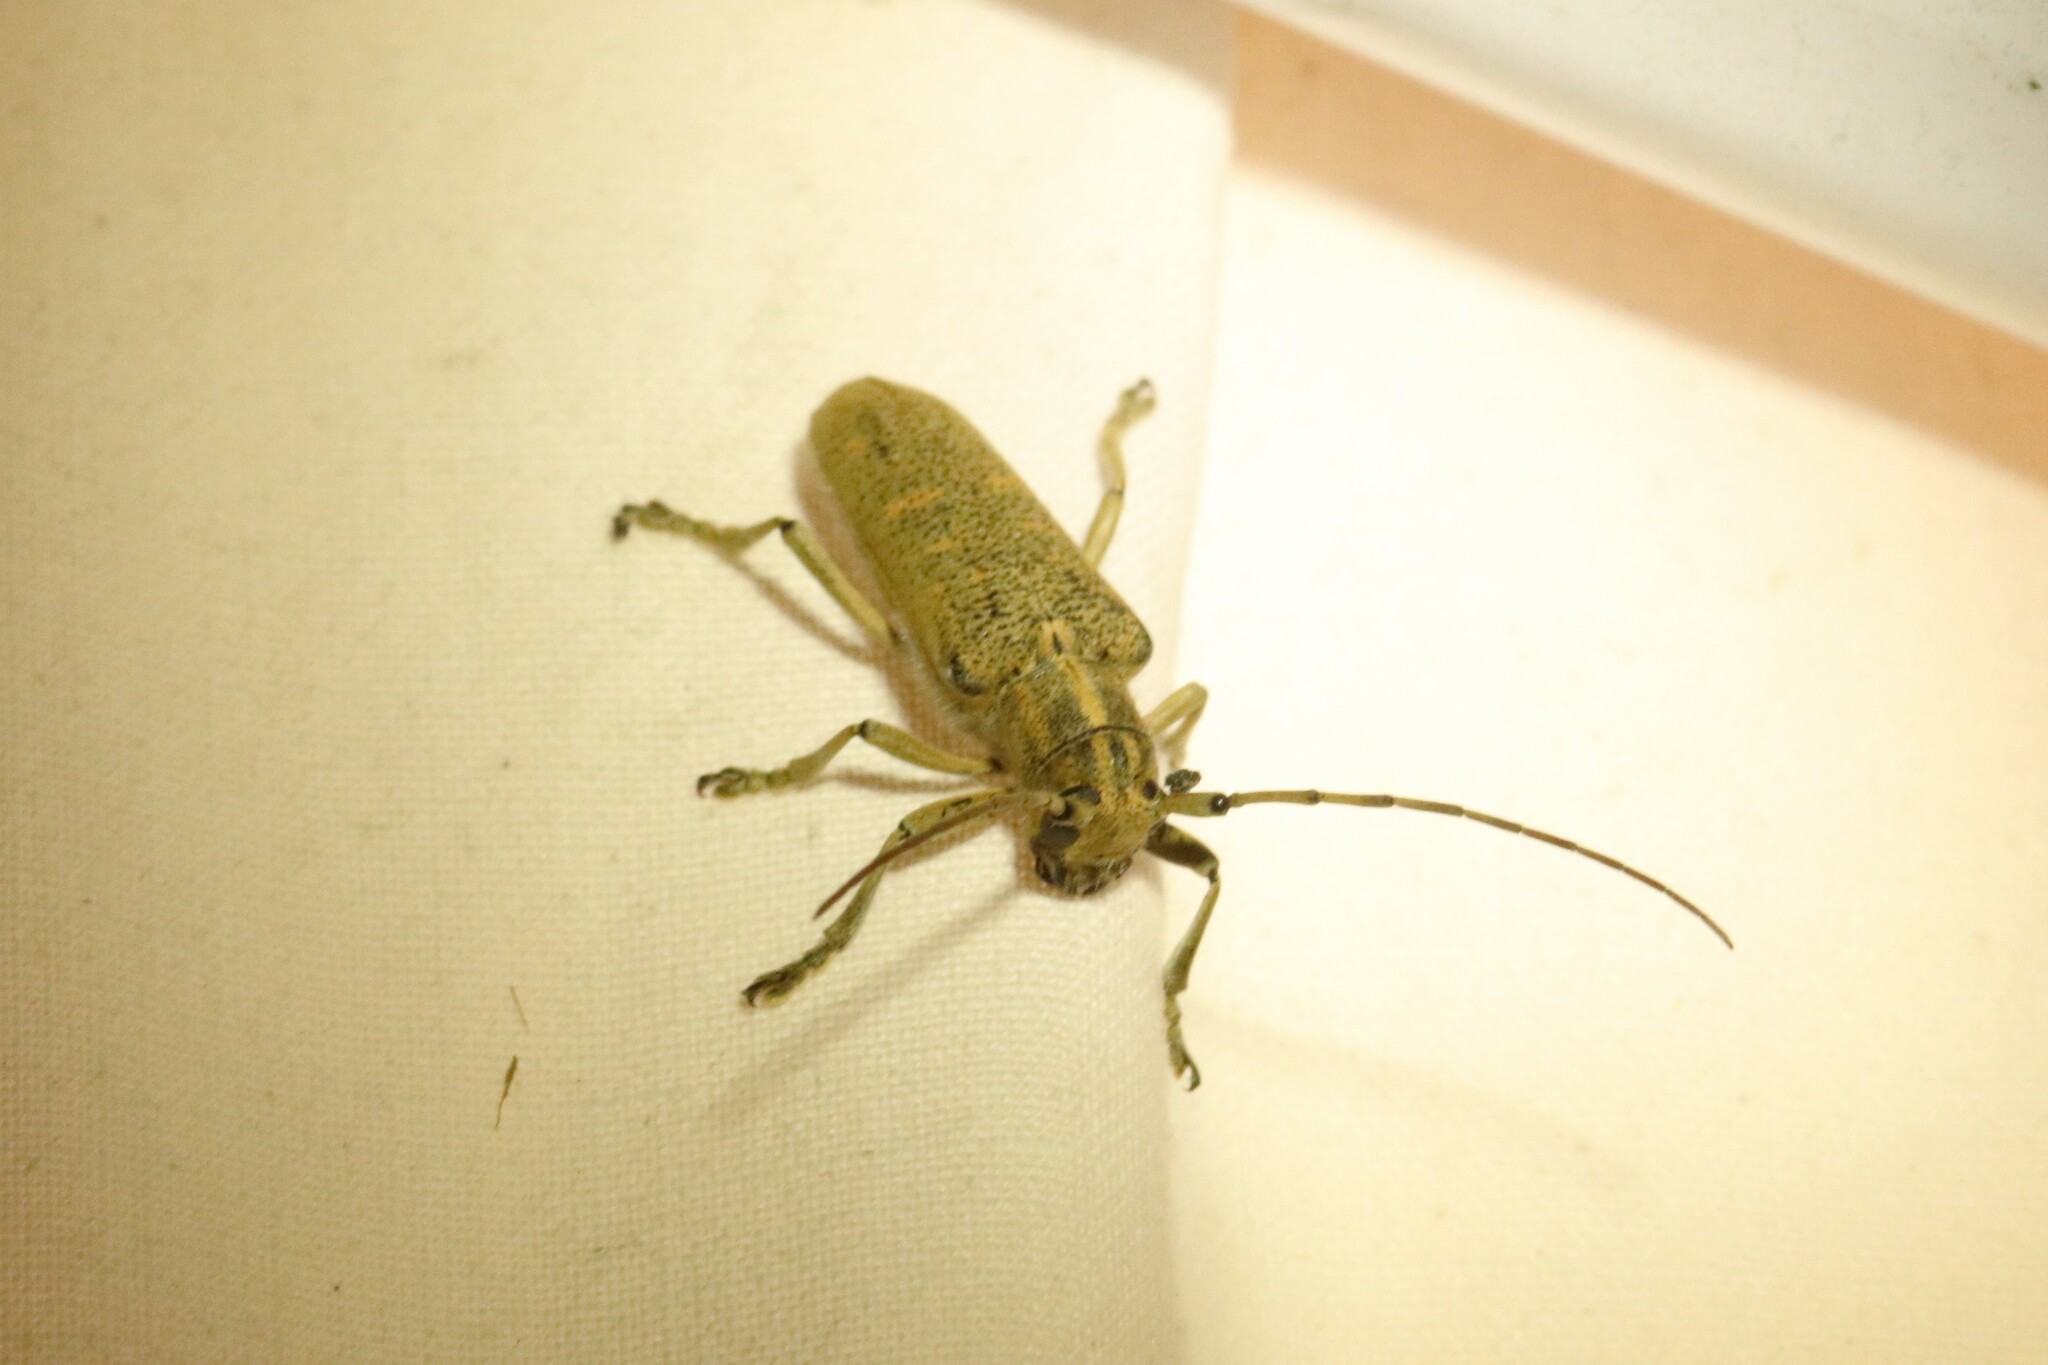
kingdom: Animalia
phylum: Arthropoda
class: Insecta
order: Coleoptera
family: Cerambycidae
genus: Saperda
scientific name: Saperda calcarata
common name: Poplar borer
